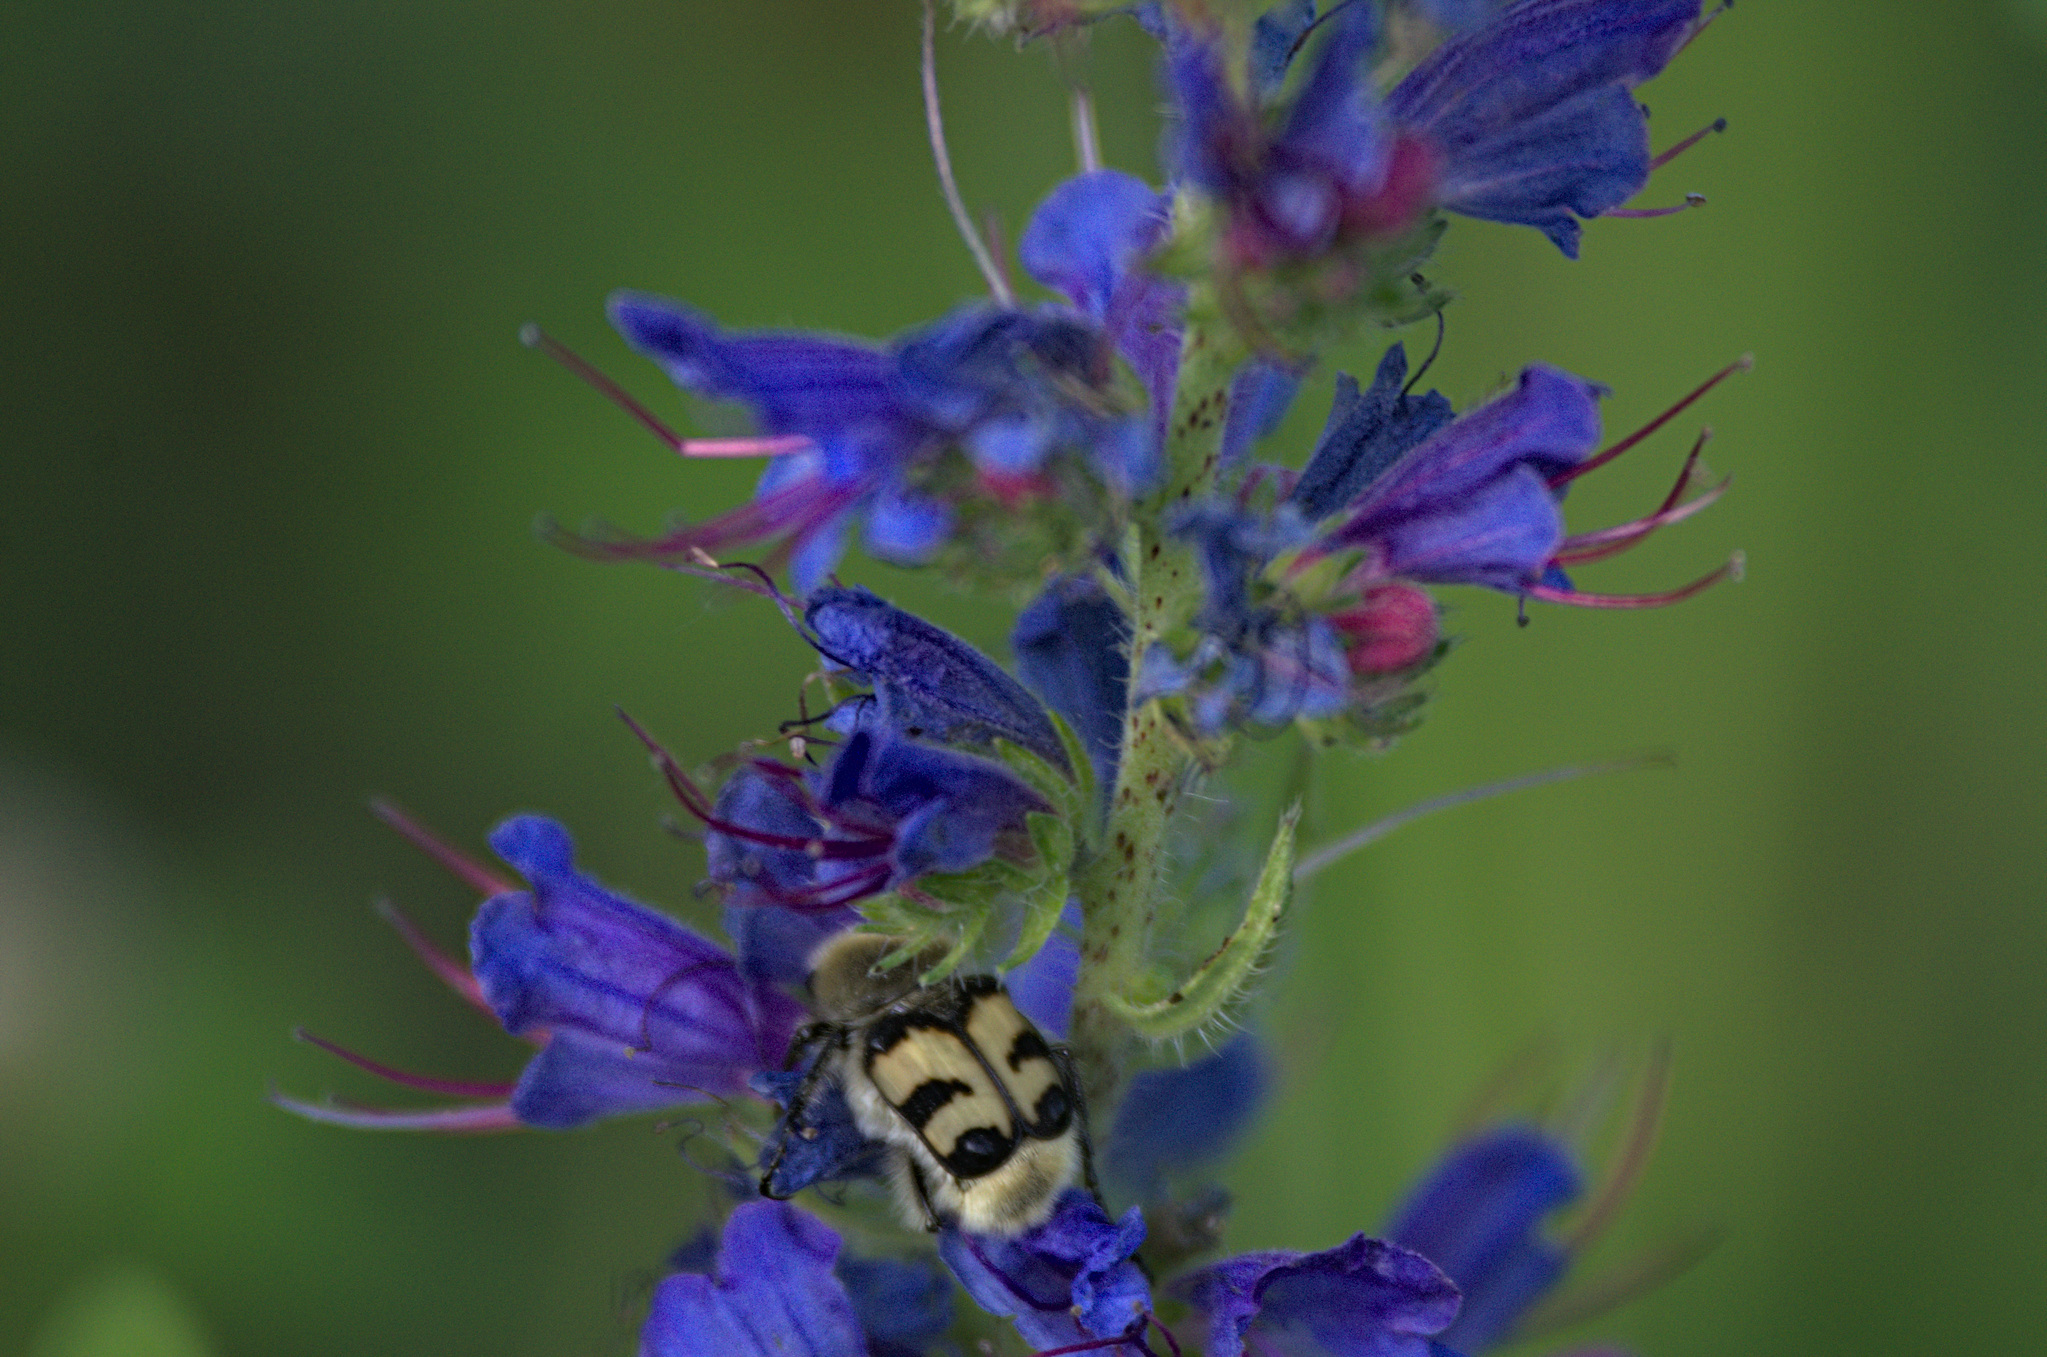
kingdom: Animalia
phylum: Arthropoda
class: Insecta
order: Coleoptera
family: Scarabaeidae
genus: Trichius
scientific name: Trichius fasciatus
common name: Bee beetle
